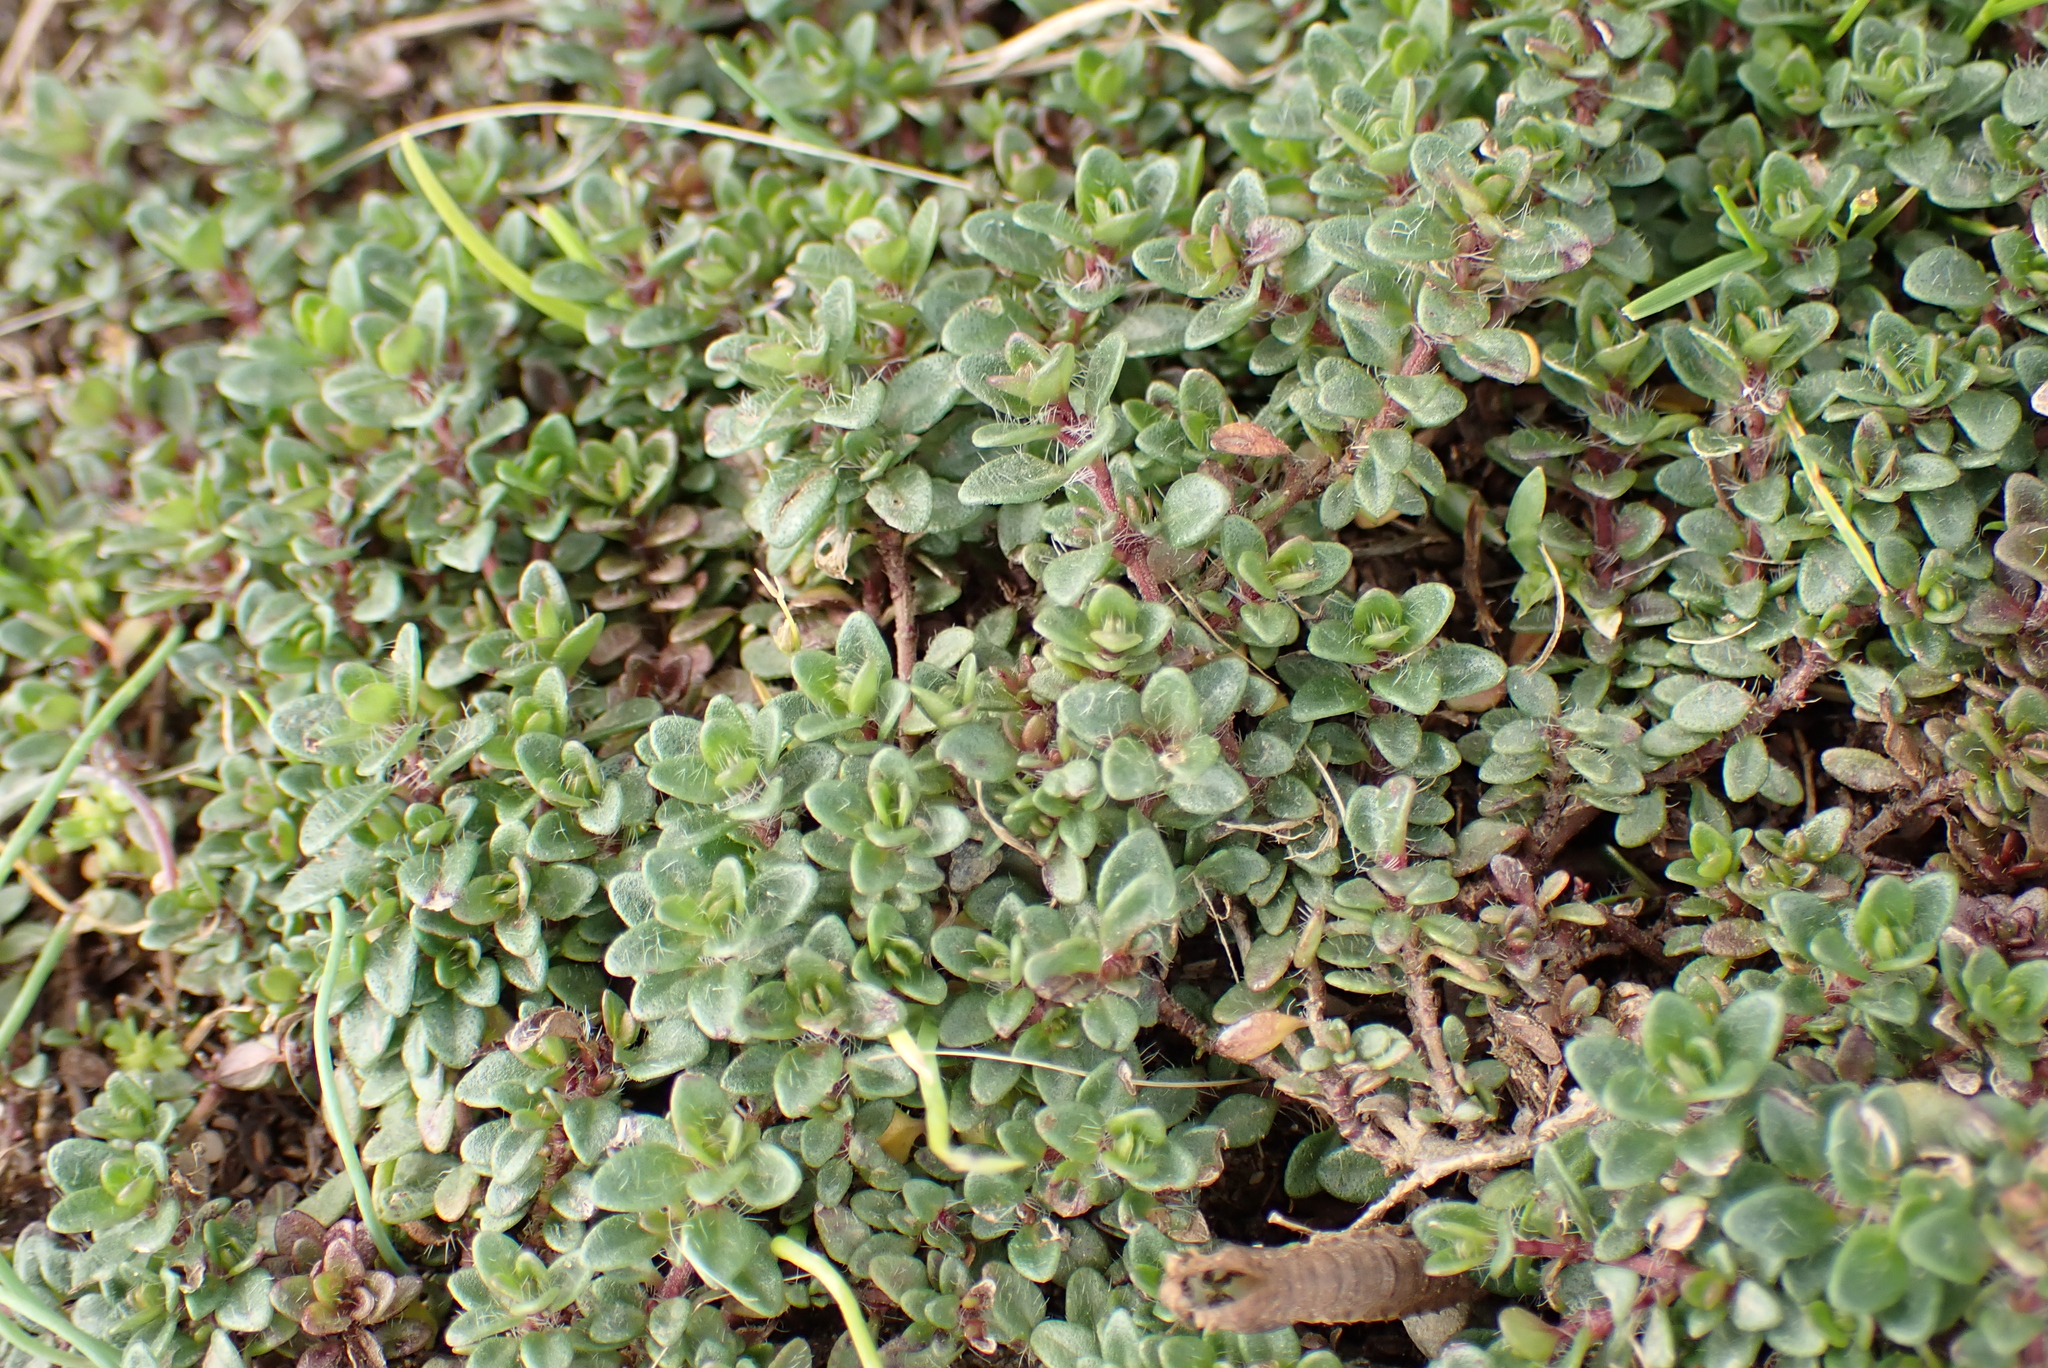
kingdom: Plantae
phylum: Tracheophyta
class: Magnoliopsida
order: Lamiales
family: Lamiaceae
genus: Thymus
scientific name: Thymus praecox
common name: Wild thyme
